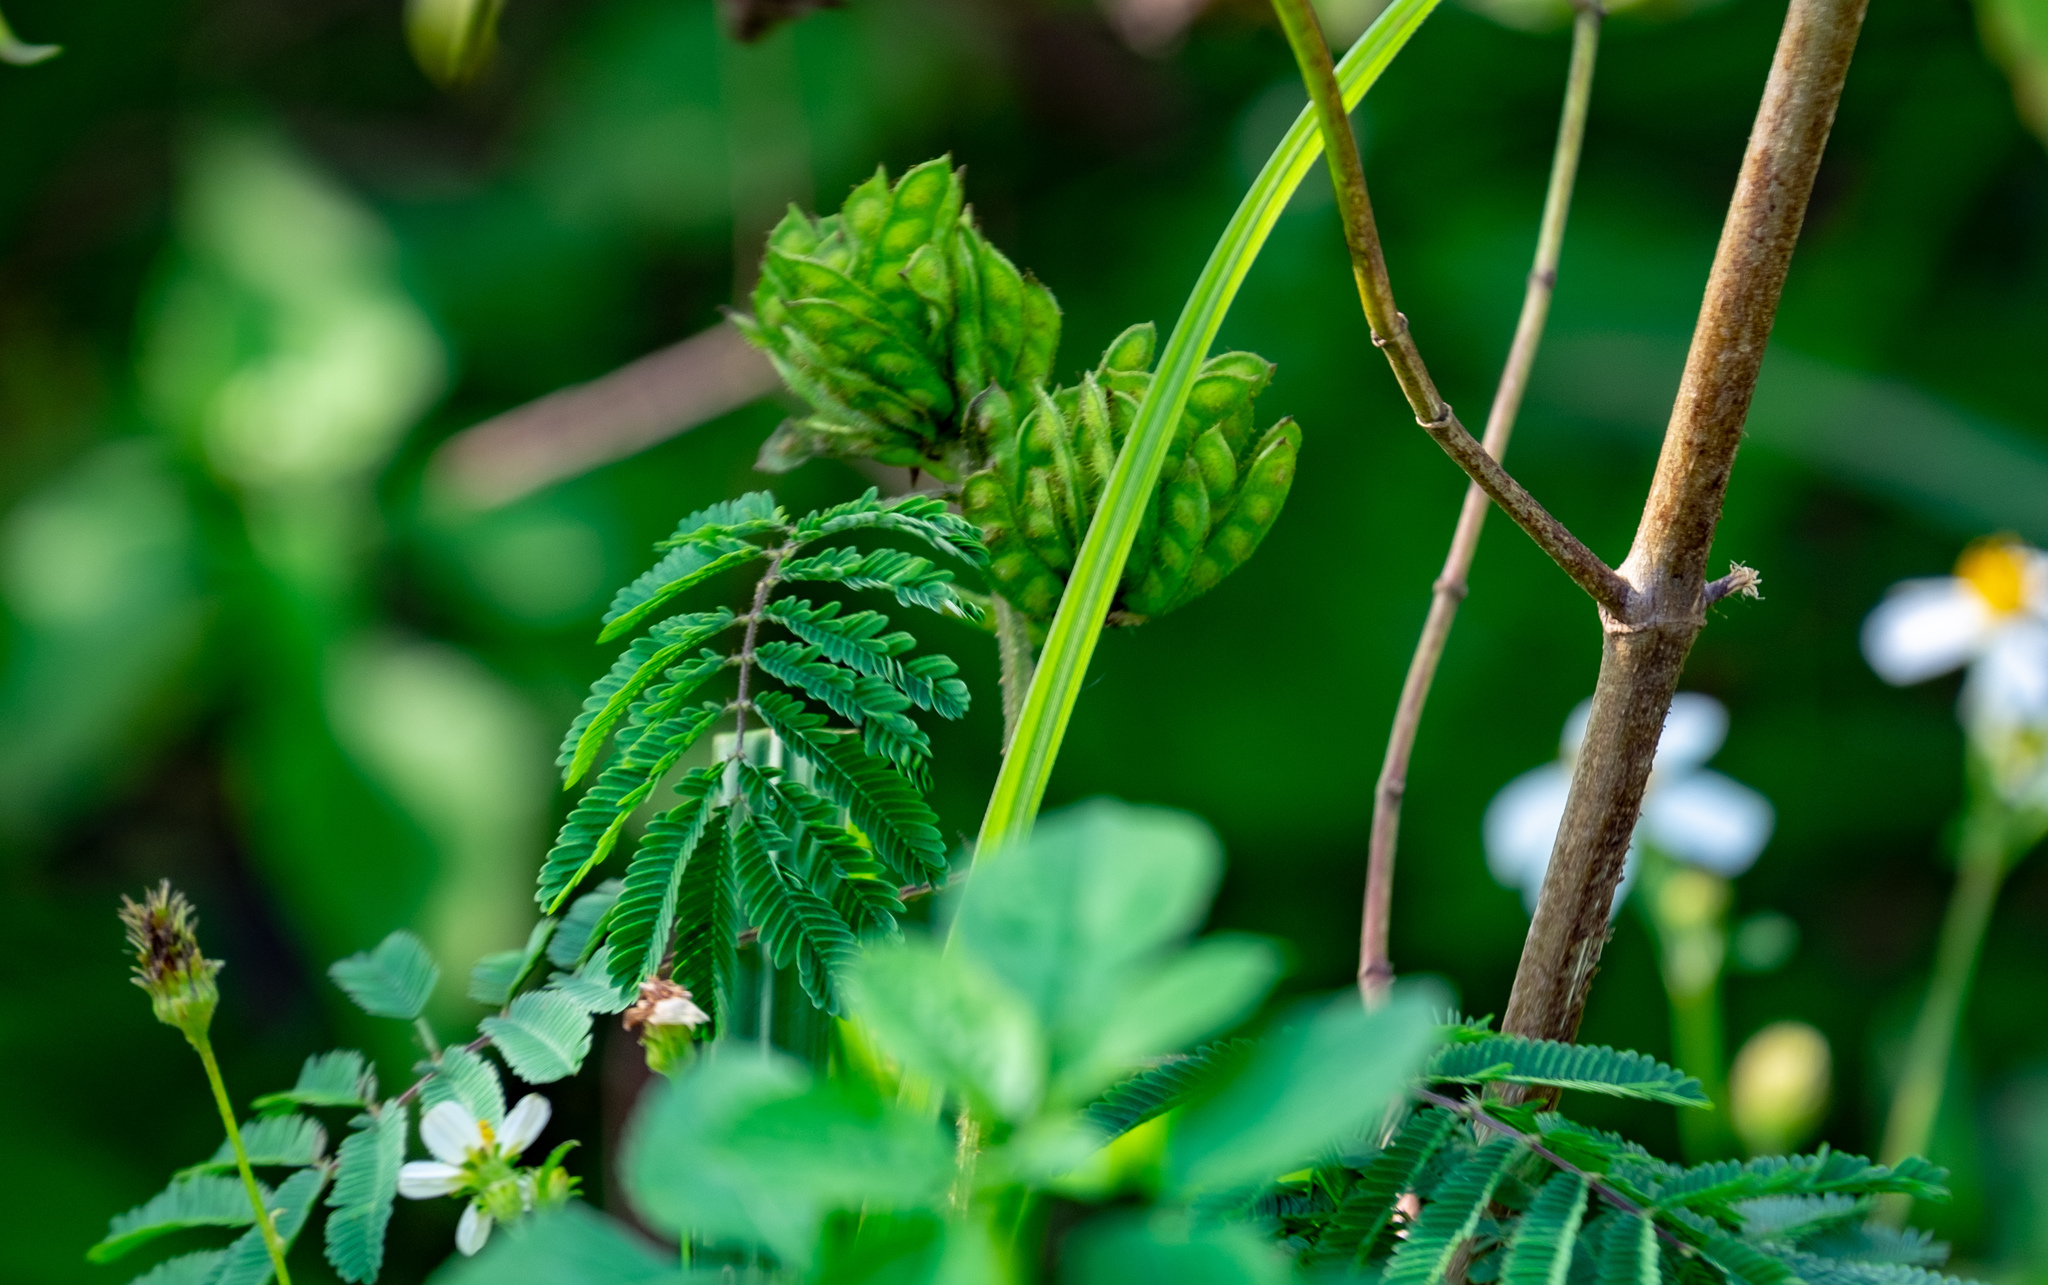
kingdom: Plantae
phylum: Tracheophyta
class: Magnoliopsida
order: Fabales
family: Fabaceae
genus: Mimosa
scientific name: Mimosa diplotricha
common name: Giant sensitive-plant
